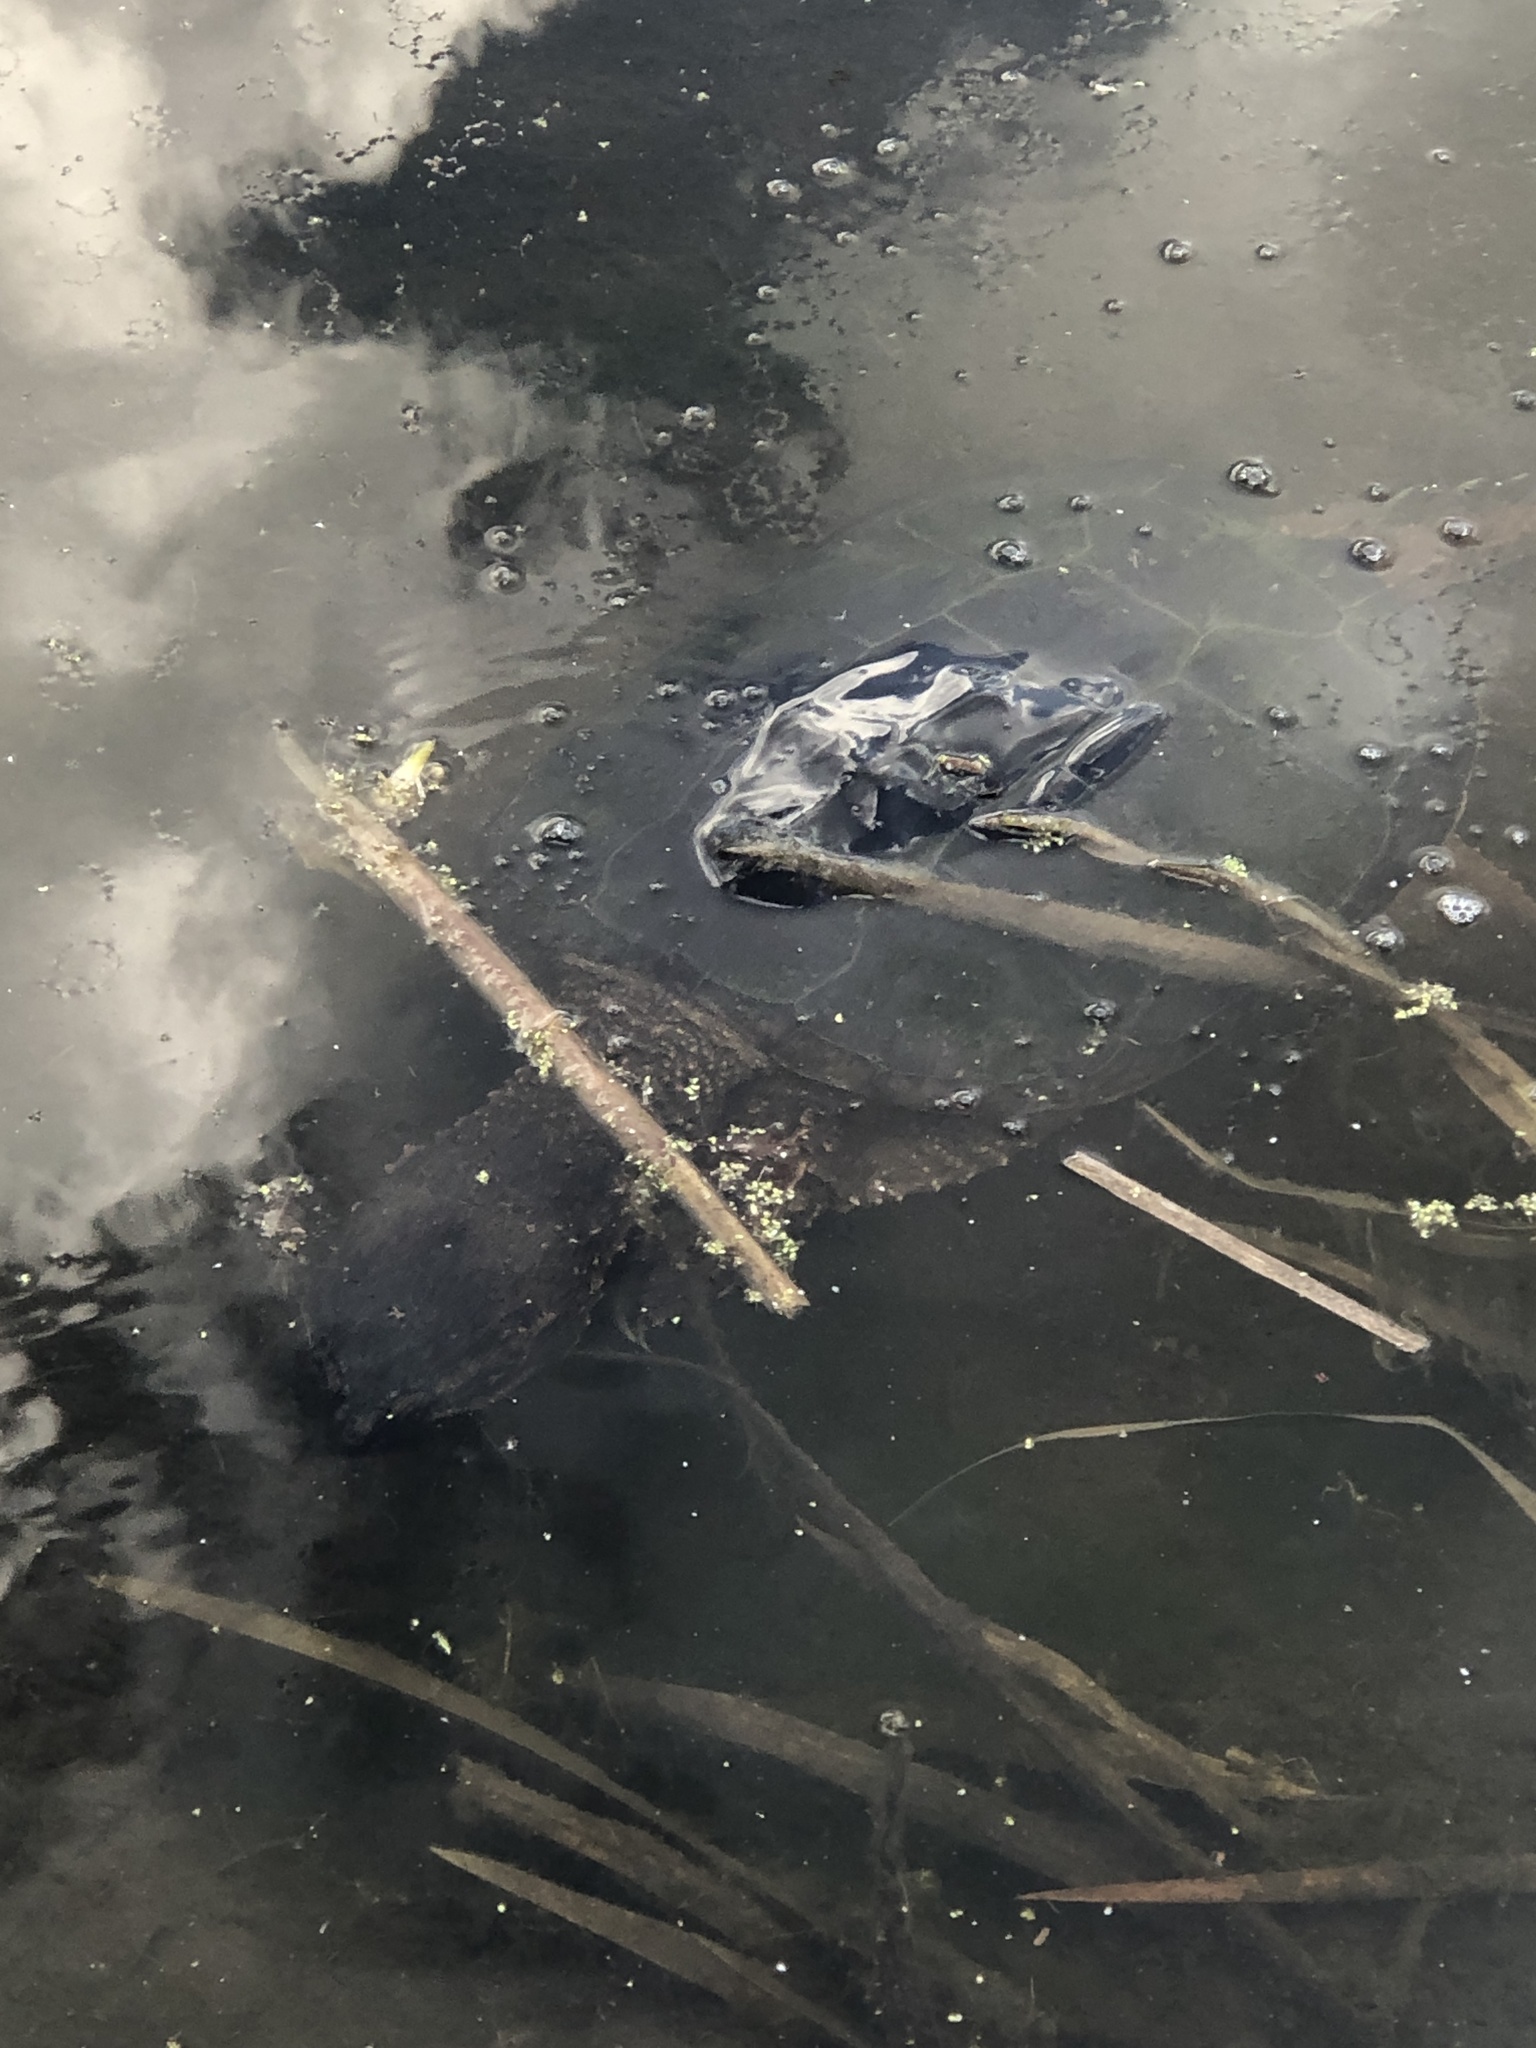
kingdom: Animalia
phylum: Chordata
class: Testudines
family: Chelydridae
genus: Chelydra
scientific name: Chelydra serpentina
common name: Common snapping turtle
